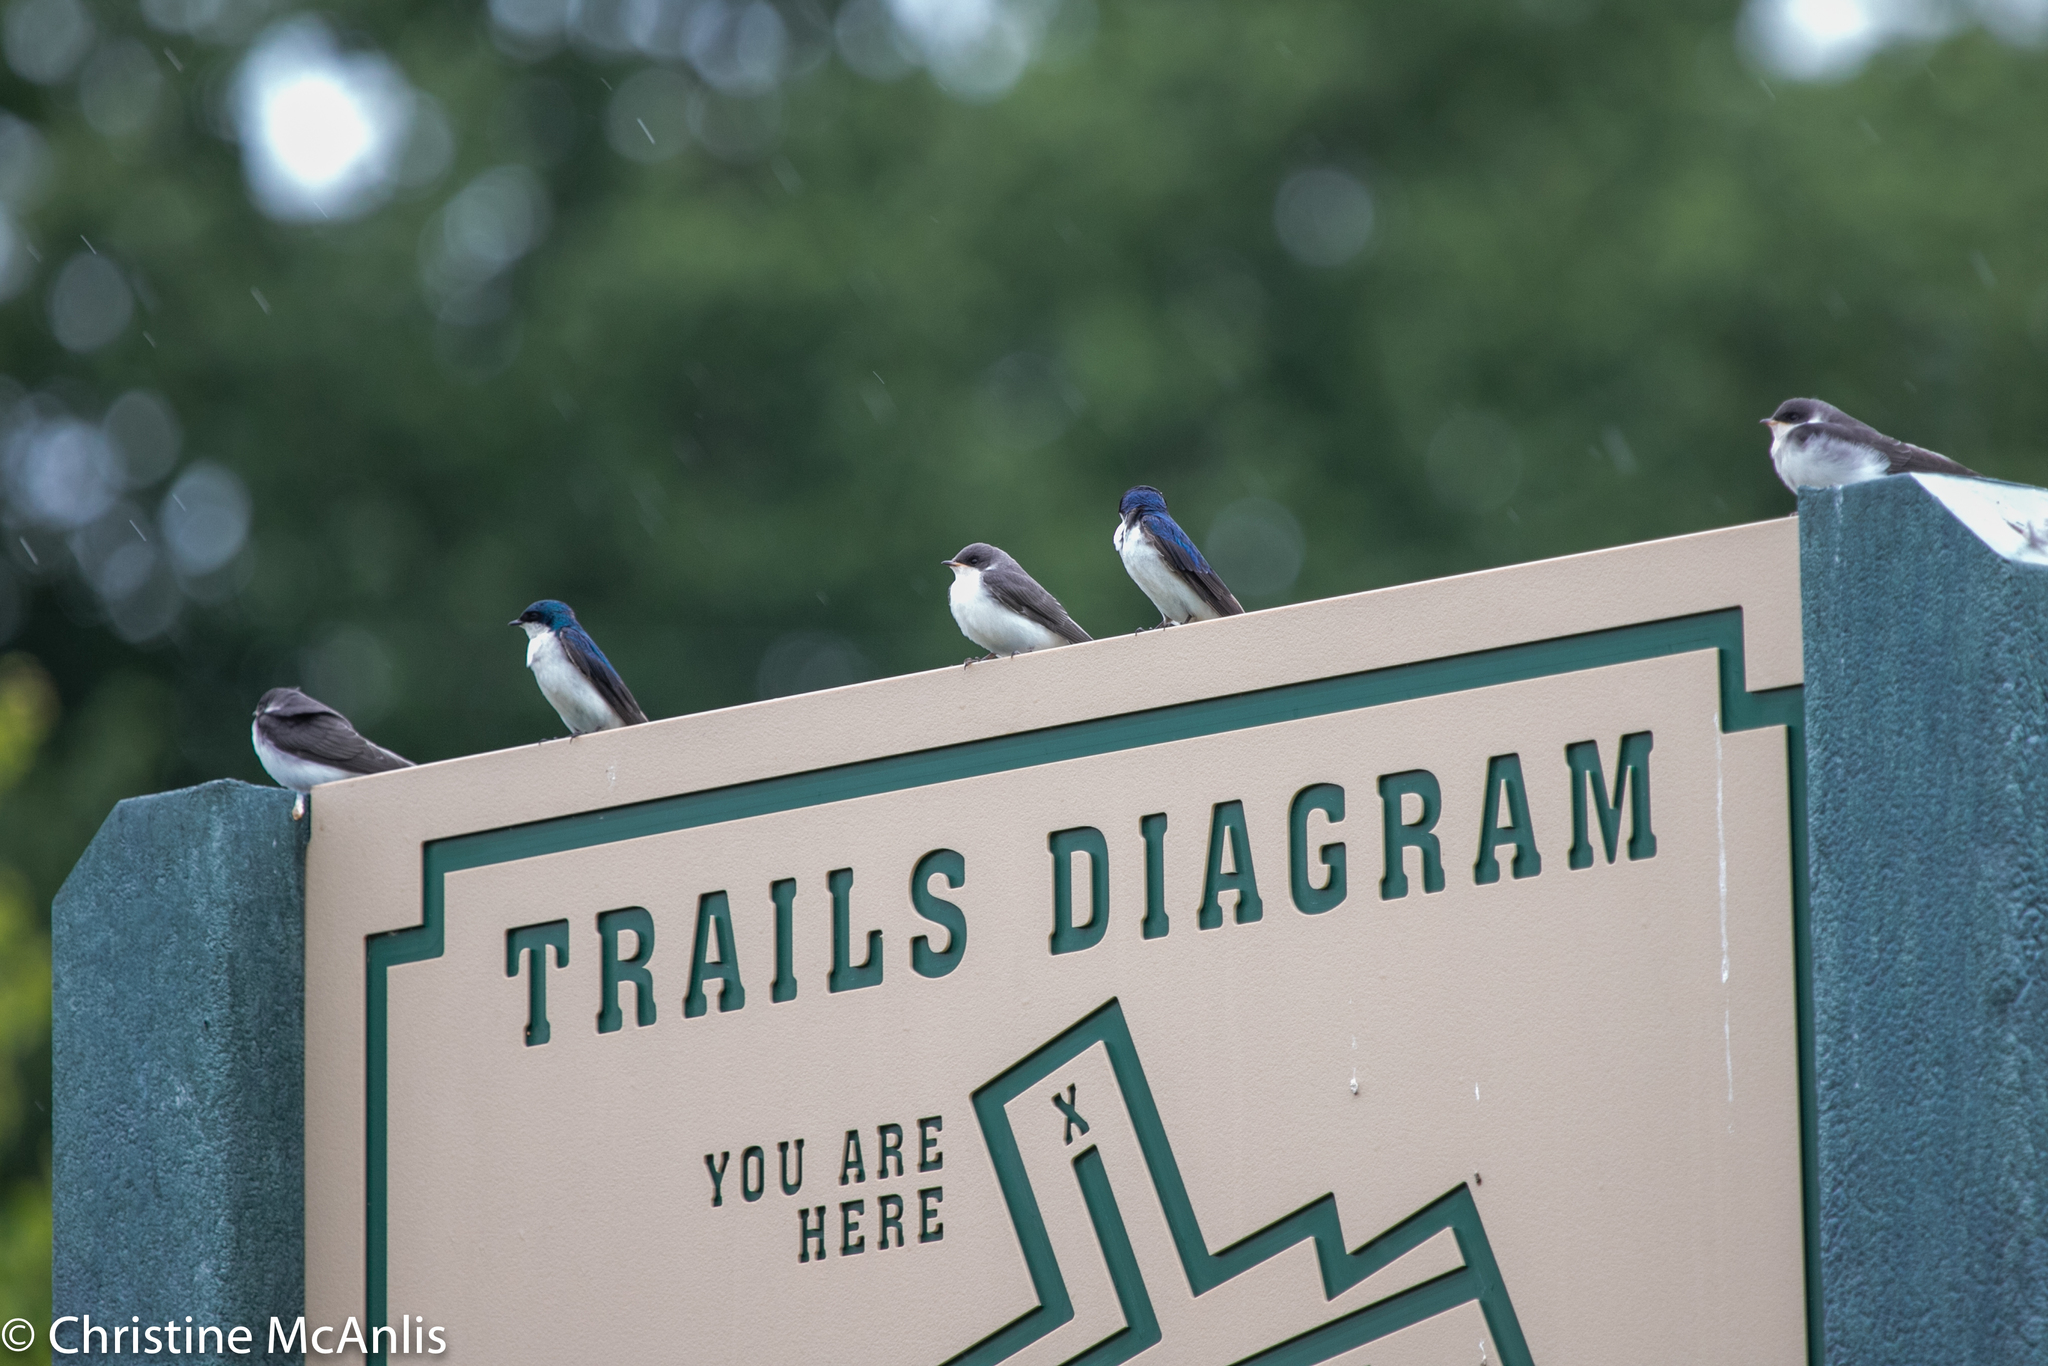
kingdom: Animalia
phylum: Chordata
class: Aves
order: Passeriformes
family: Hirundinidae
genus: Tachycineta
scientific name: Tachycineta bicolor
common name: Tree swallow
